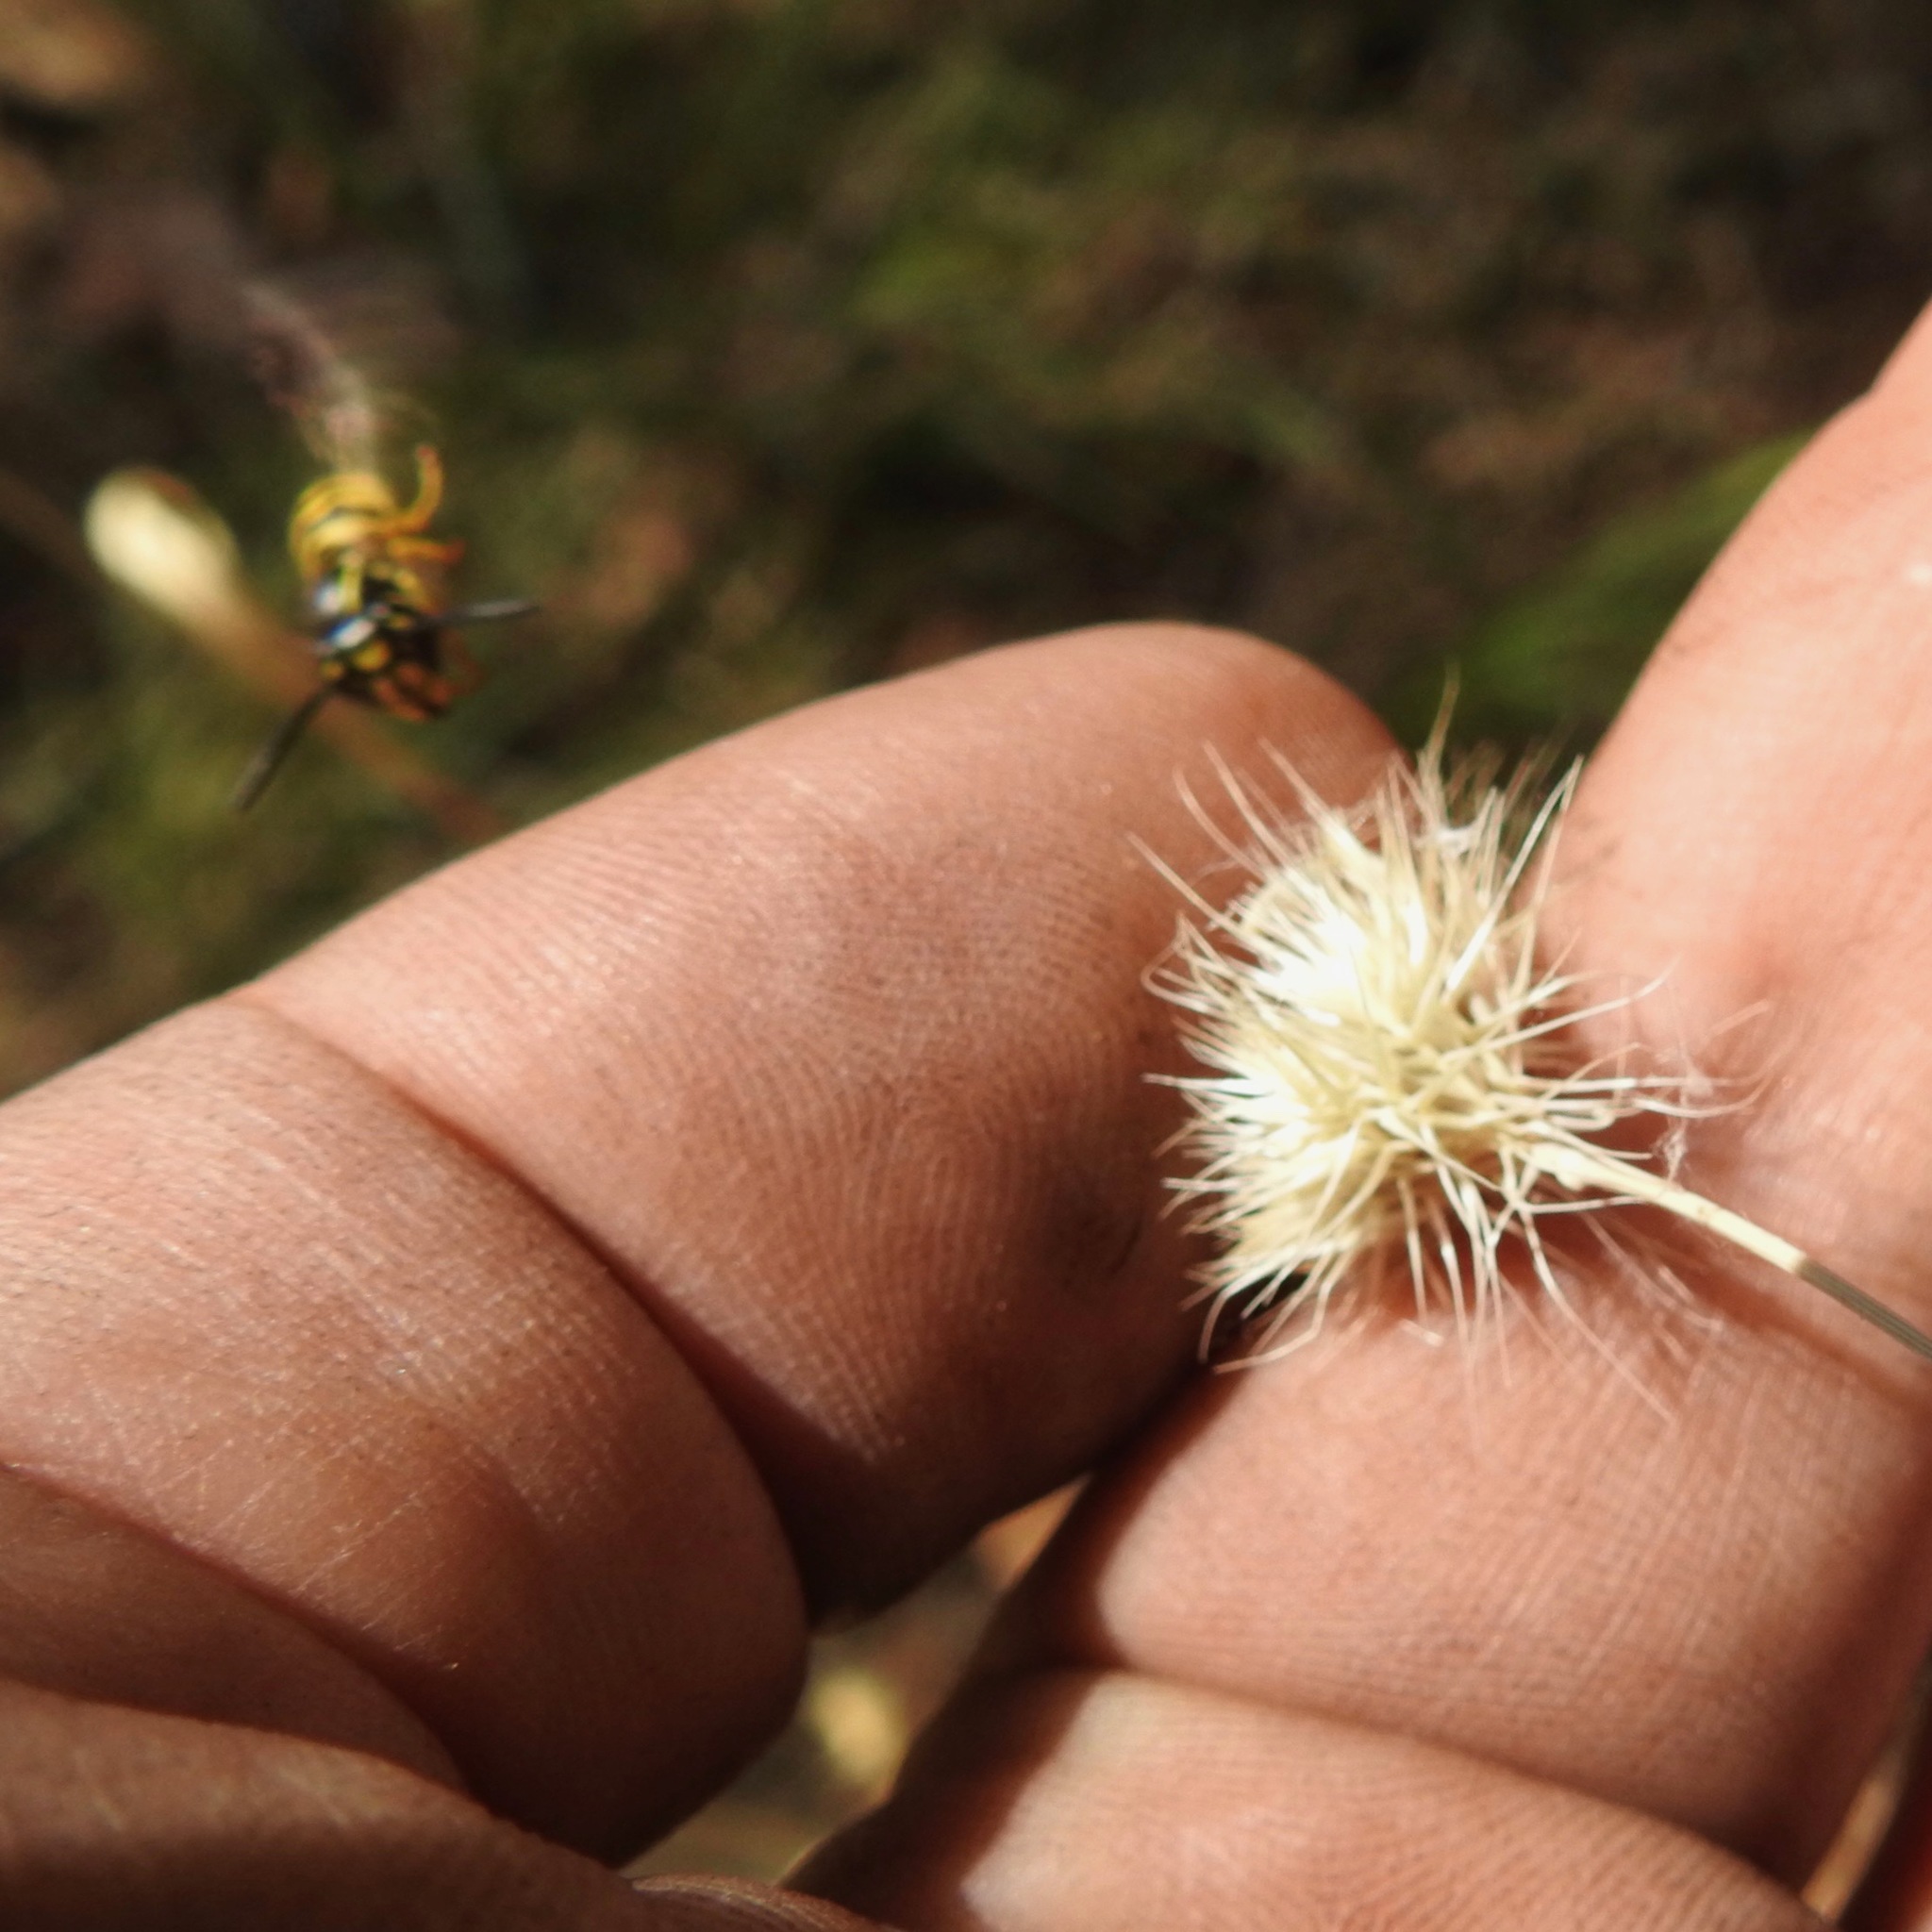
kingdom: Animalia
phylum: Arthropoda
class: Insecta
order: Hymenoptera
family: Vespidae
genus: Vespula
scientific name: Vespula
